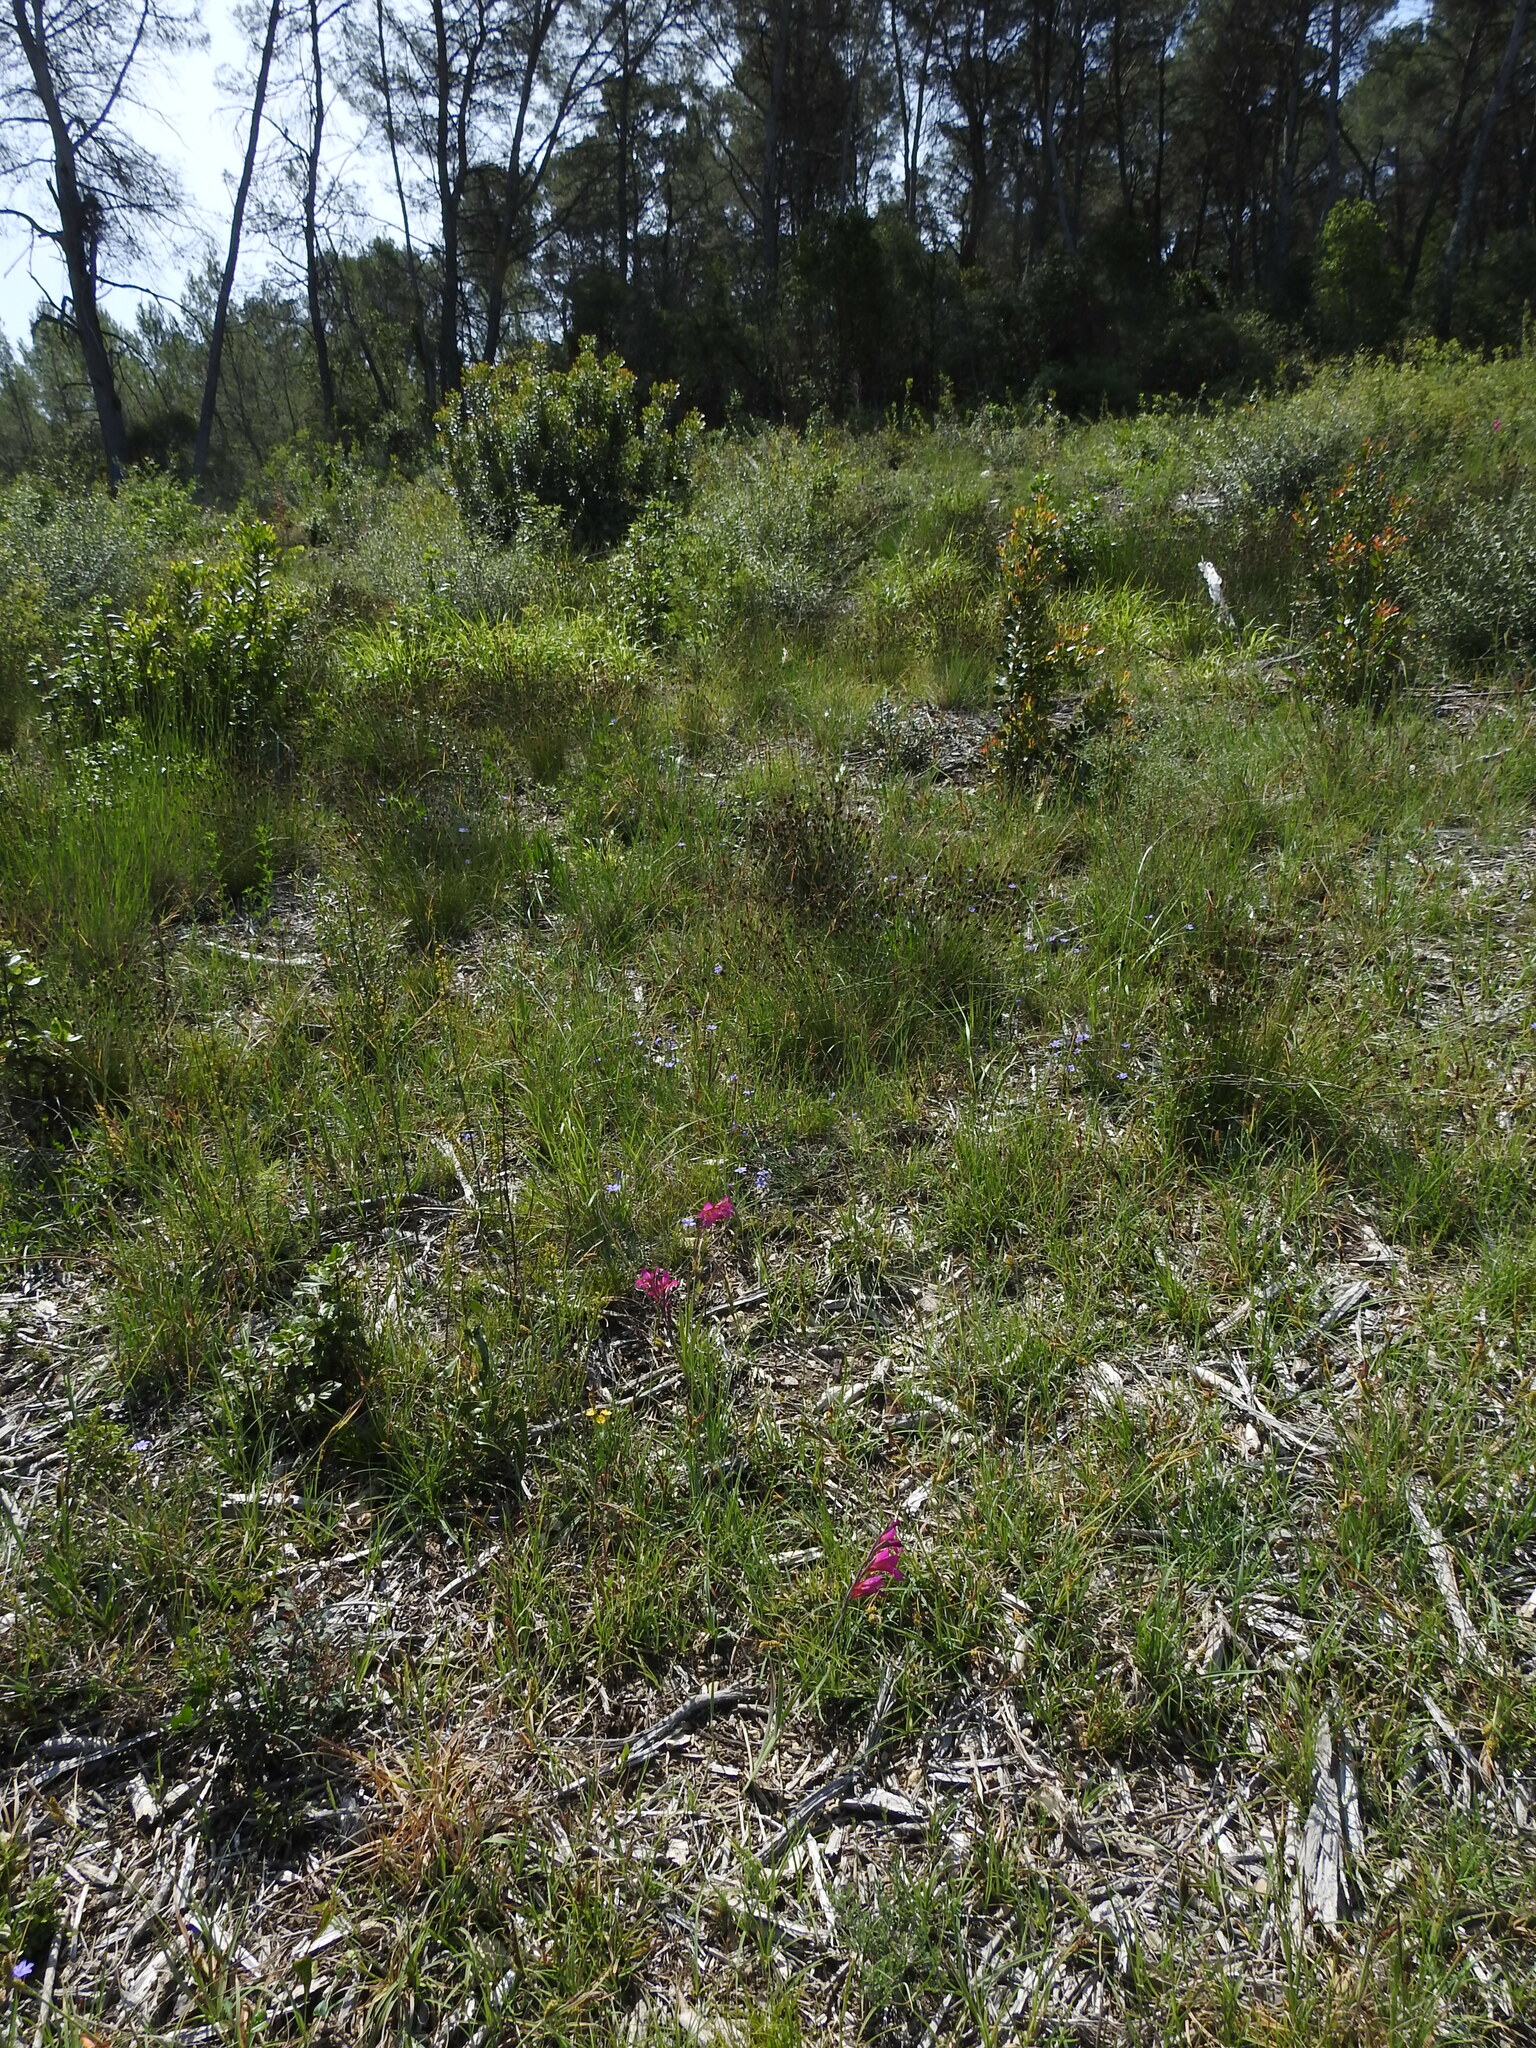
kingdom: Plantae
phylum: Tracheophyta
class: Liliopsida
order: Asparagales
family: Iridaceae
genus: Gladiolus
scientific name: Gladiolus dubius
